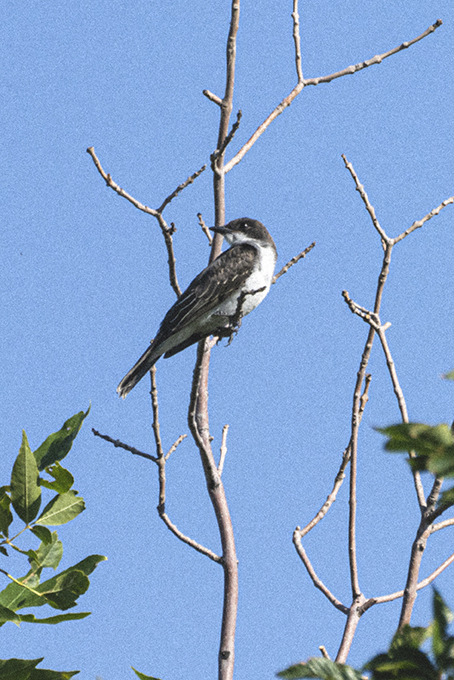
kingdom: Animalia
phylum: Chordata
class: Aves
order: Passeriformes
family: Tyrannidae
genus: Tyrannus
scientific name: Tyrannus tyrannus
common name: Eastern kingbird
